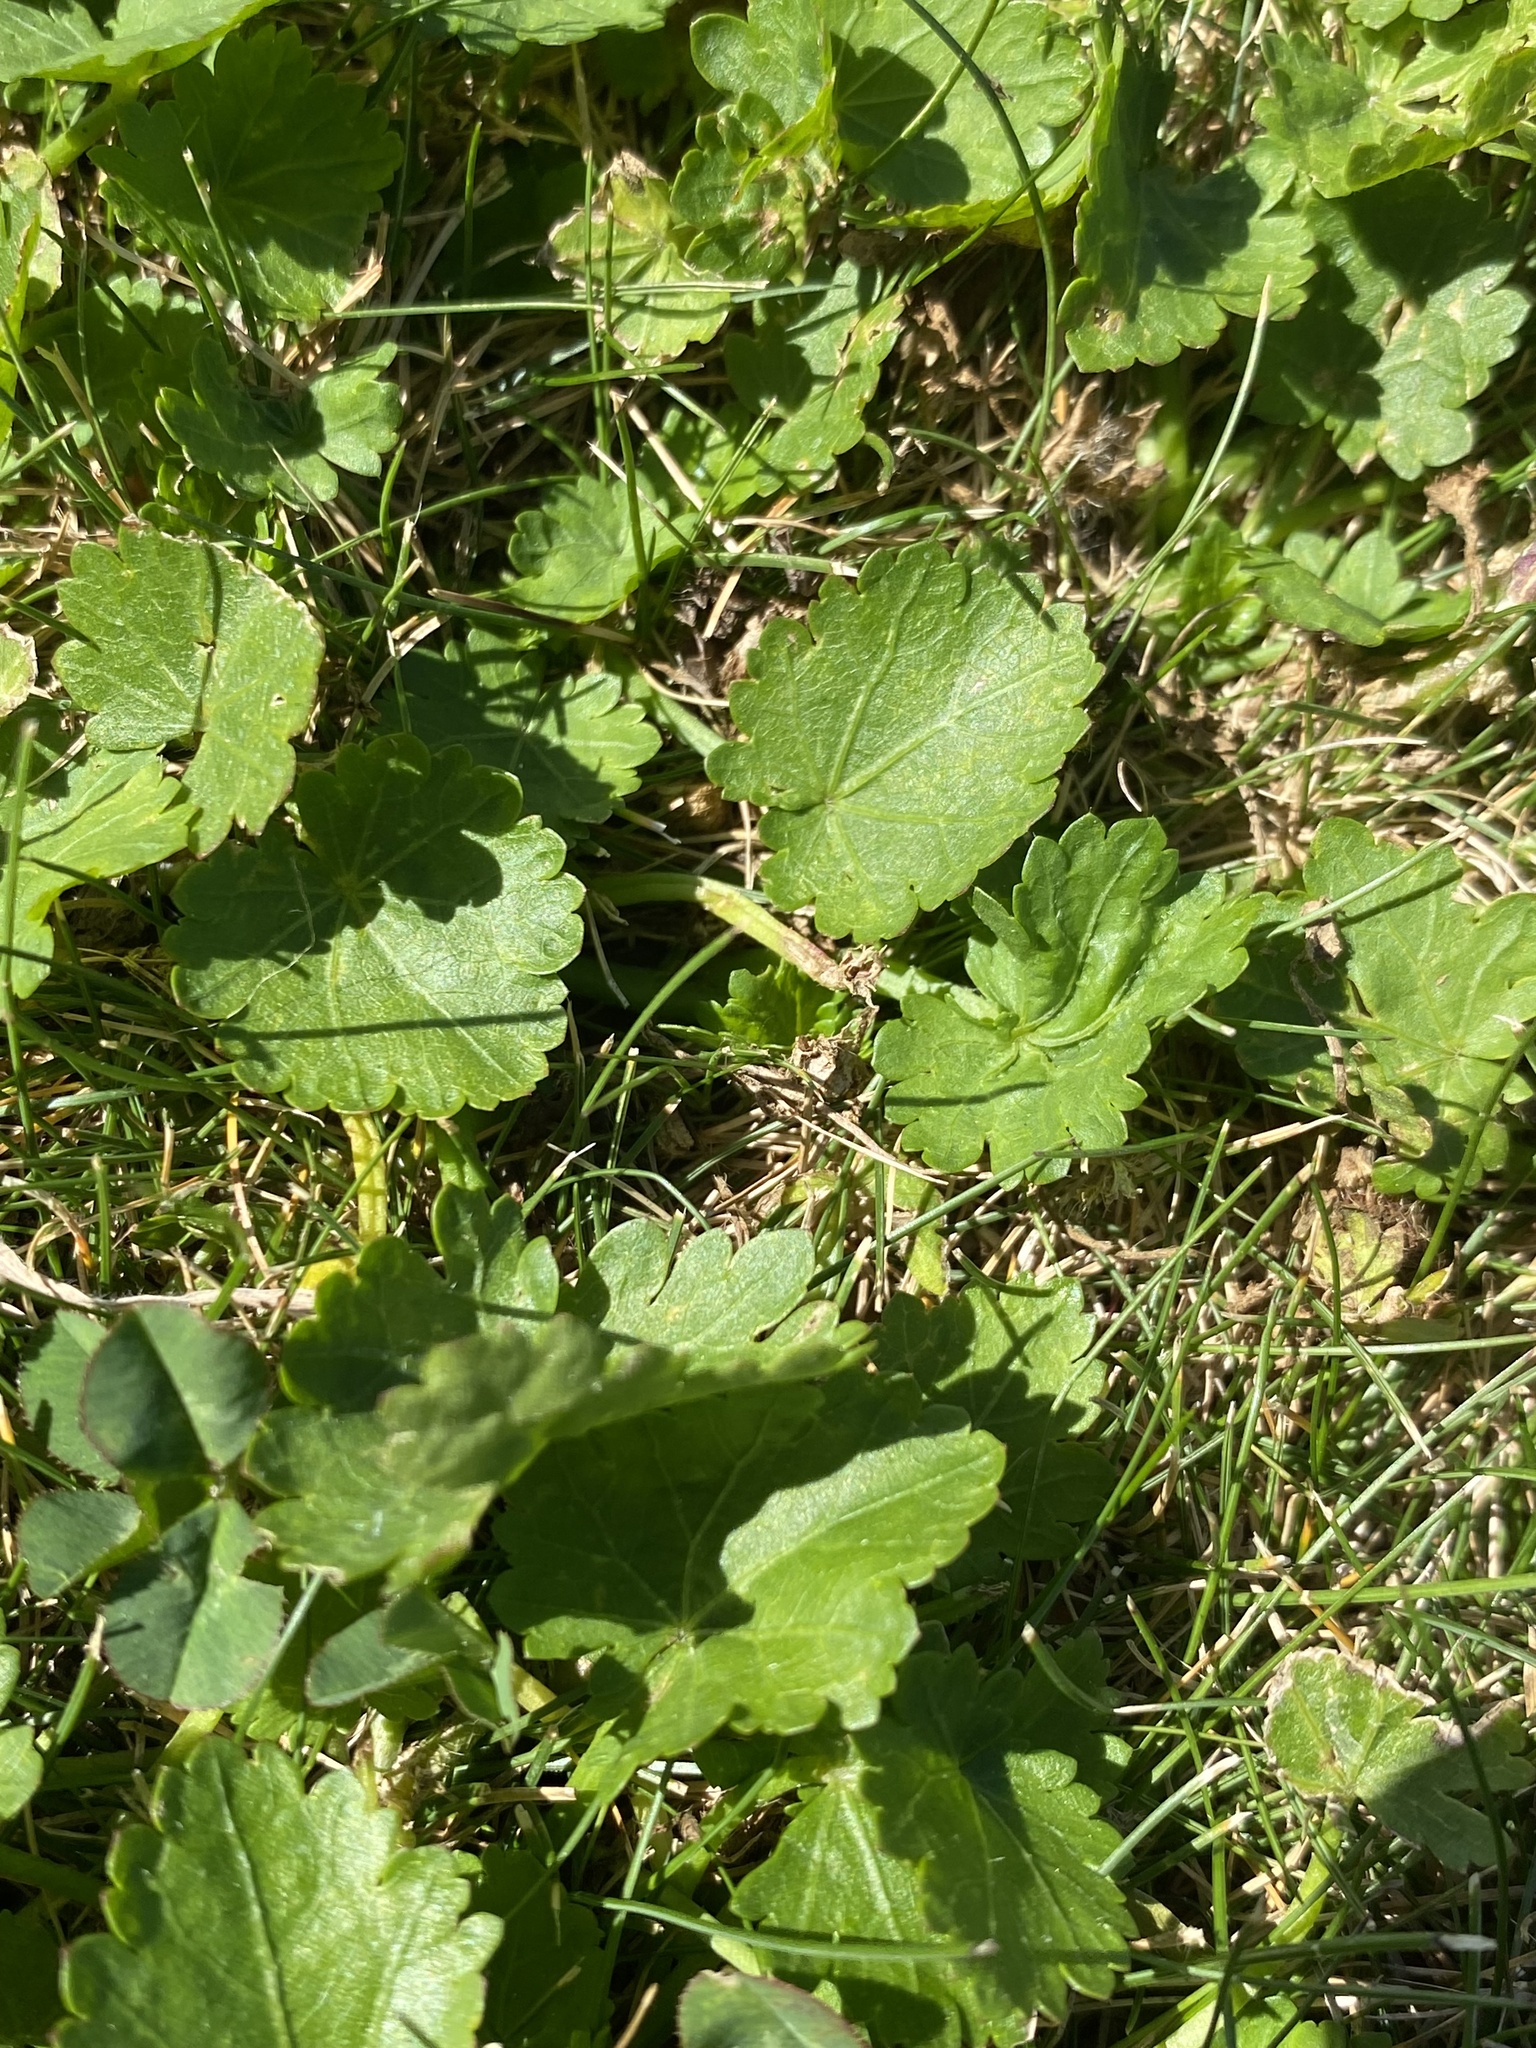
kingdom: Plantae
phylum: Tracheophyta
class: Magnoliopsida
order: Malvales
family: Malvaceae
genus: Modiola
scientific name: Modiola caroliniana
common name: Carolina bristlemallow
